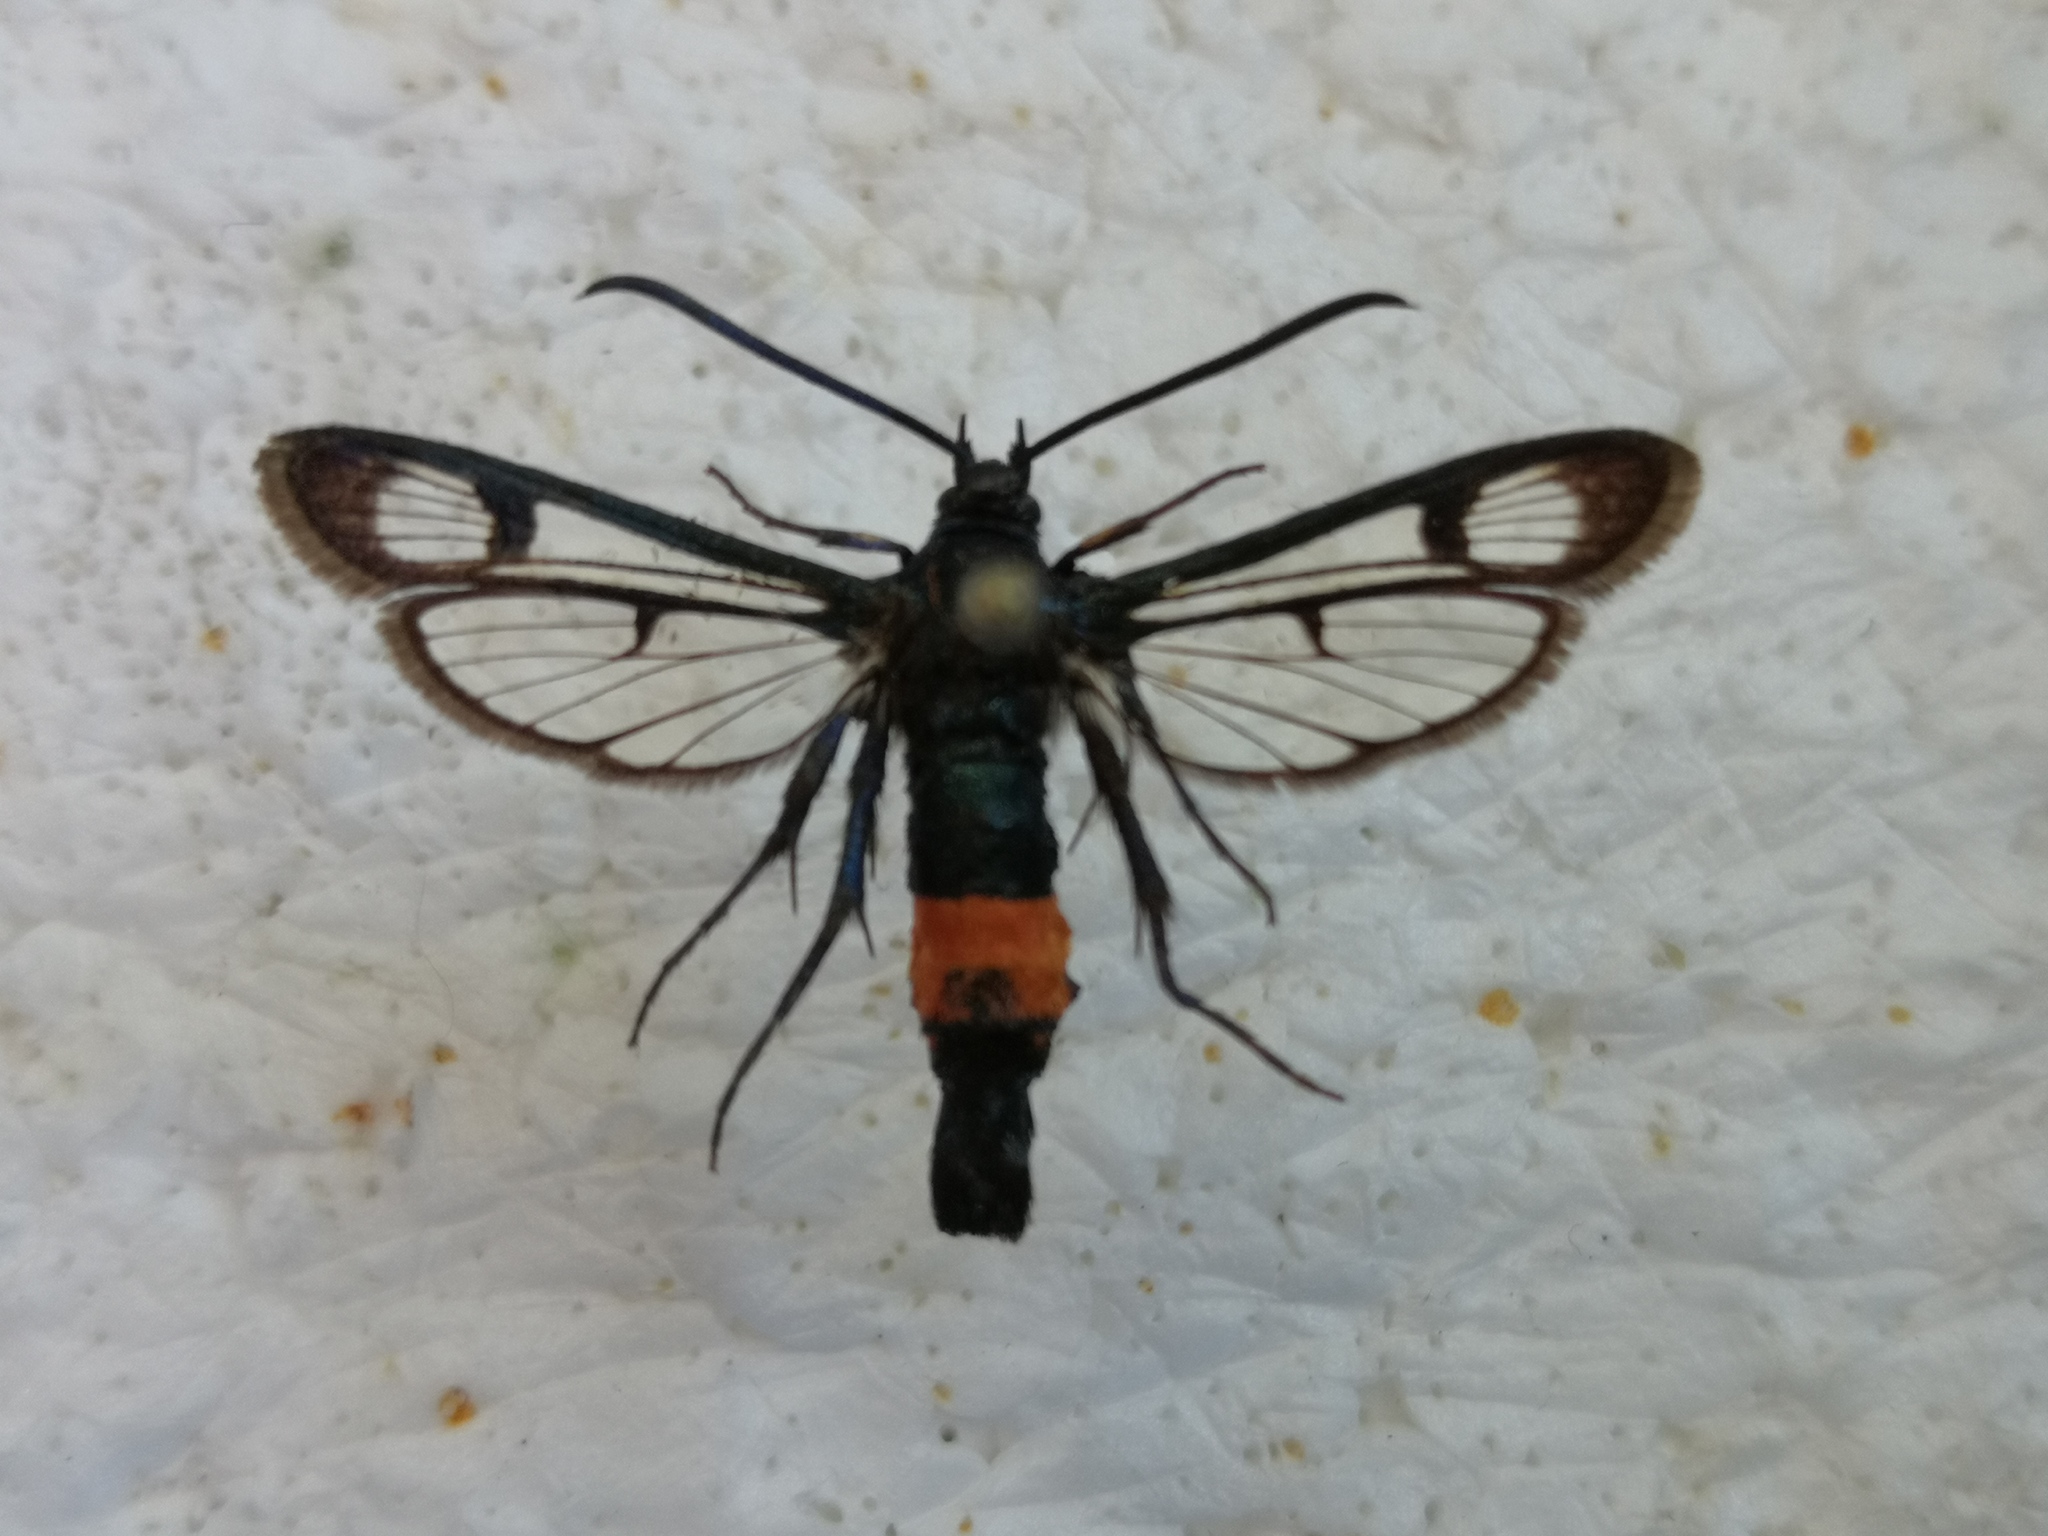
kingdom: Animalia
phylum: Arthropoda
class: Insecta
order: Lepidoptera
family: Sesiidae
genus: Synanthedon
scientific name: Synanthedon stomoxiformis
